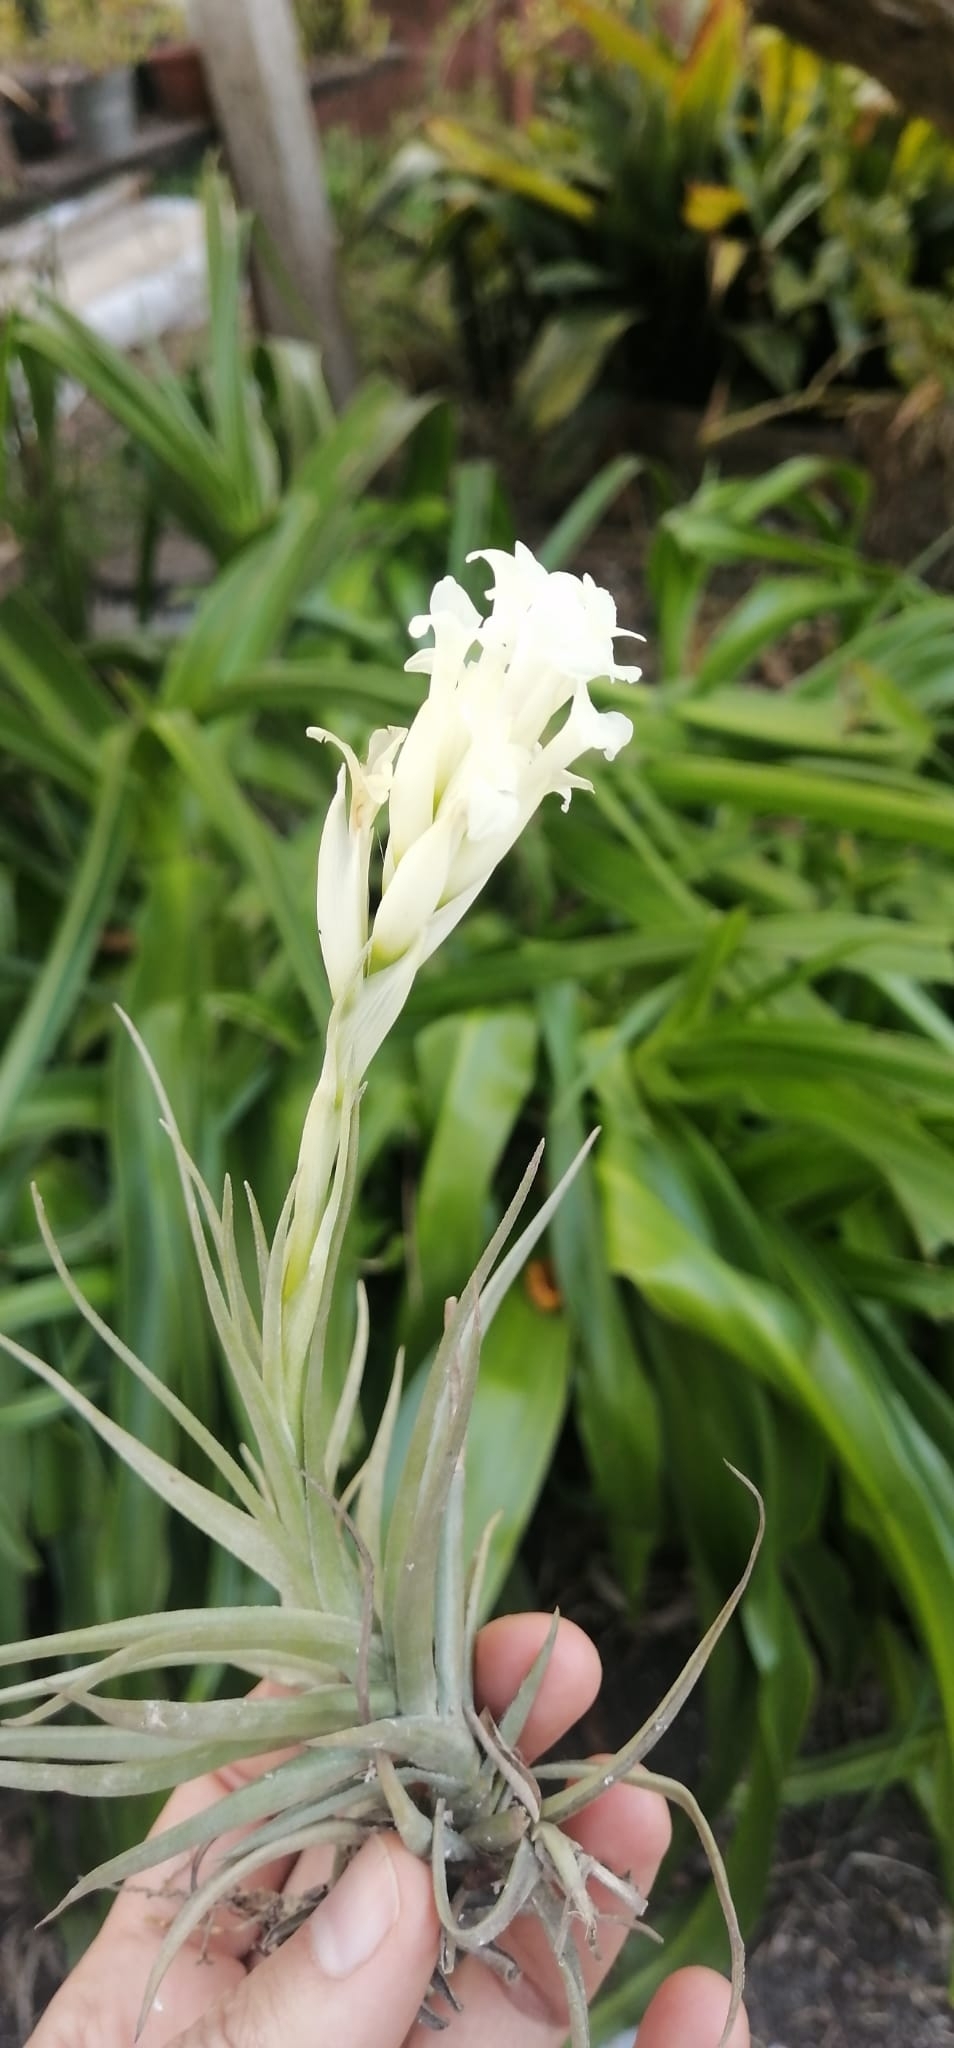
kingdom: Plantae
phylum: Tracheophyta
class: Liliopsida
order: Poales
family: Bromeliaceae
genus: Tillandsia
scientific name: Tillandsia aeranthos
